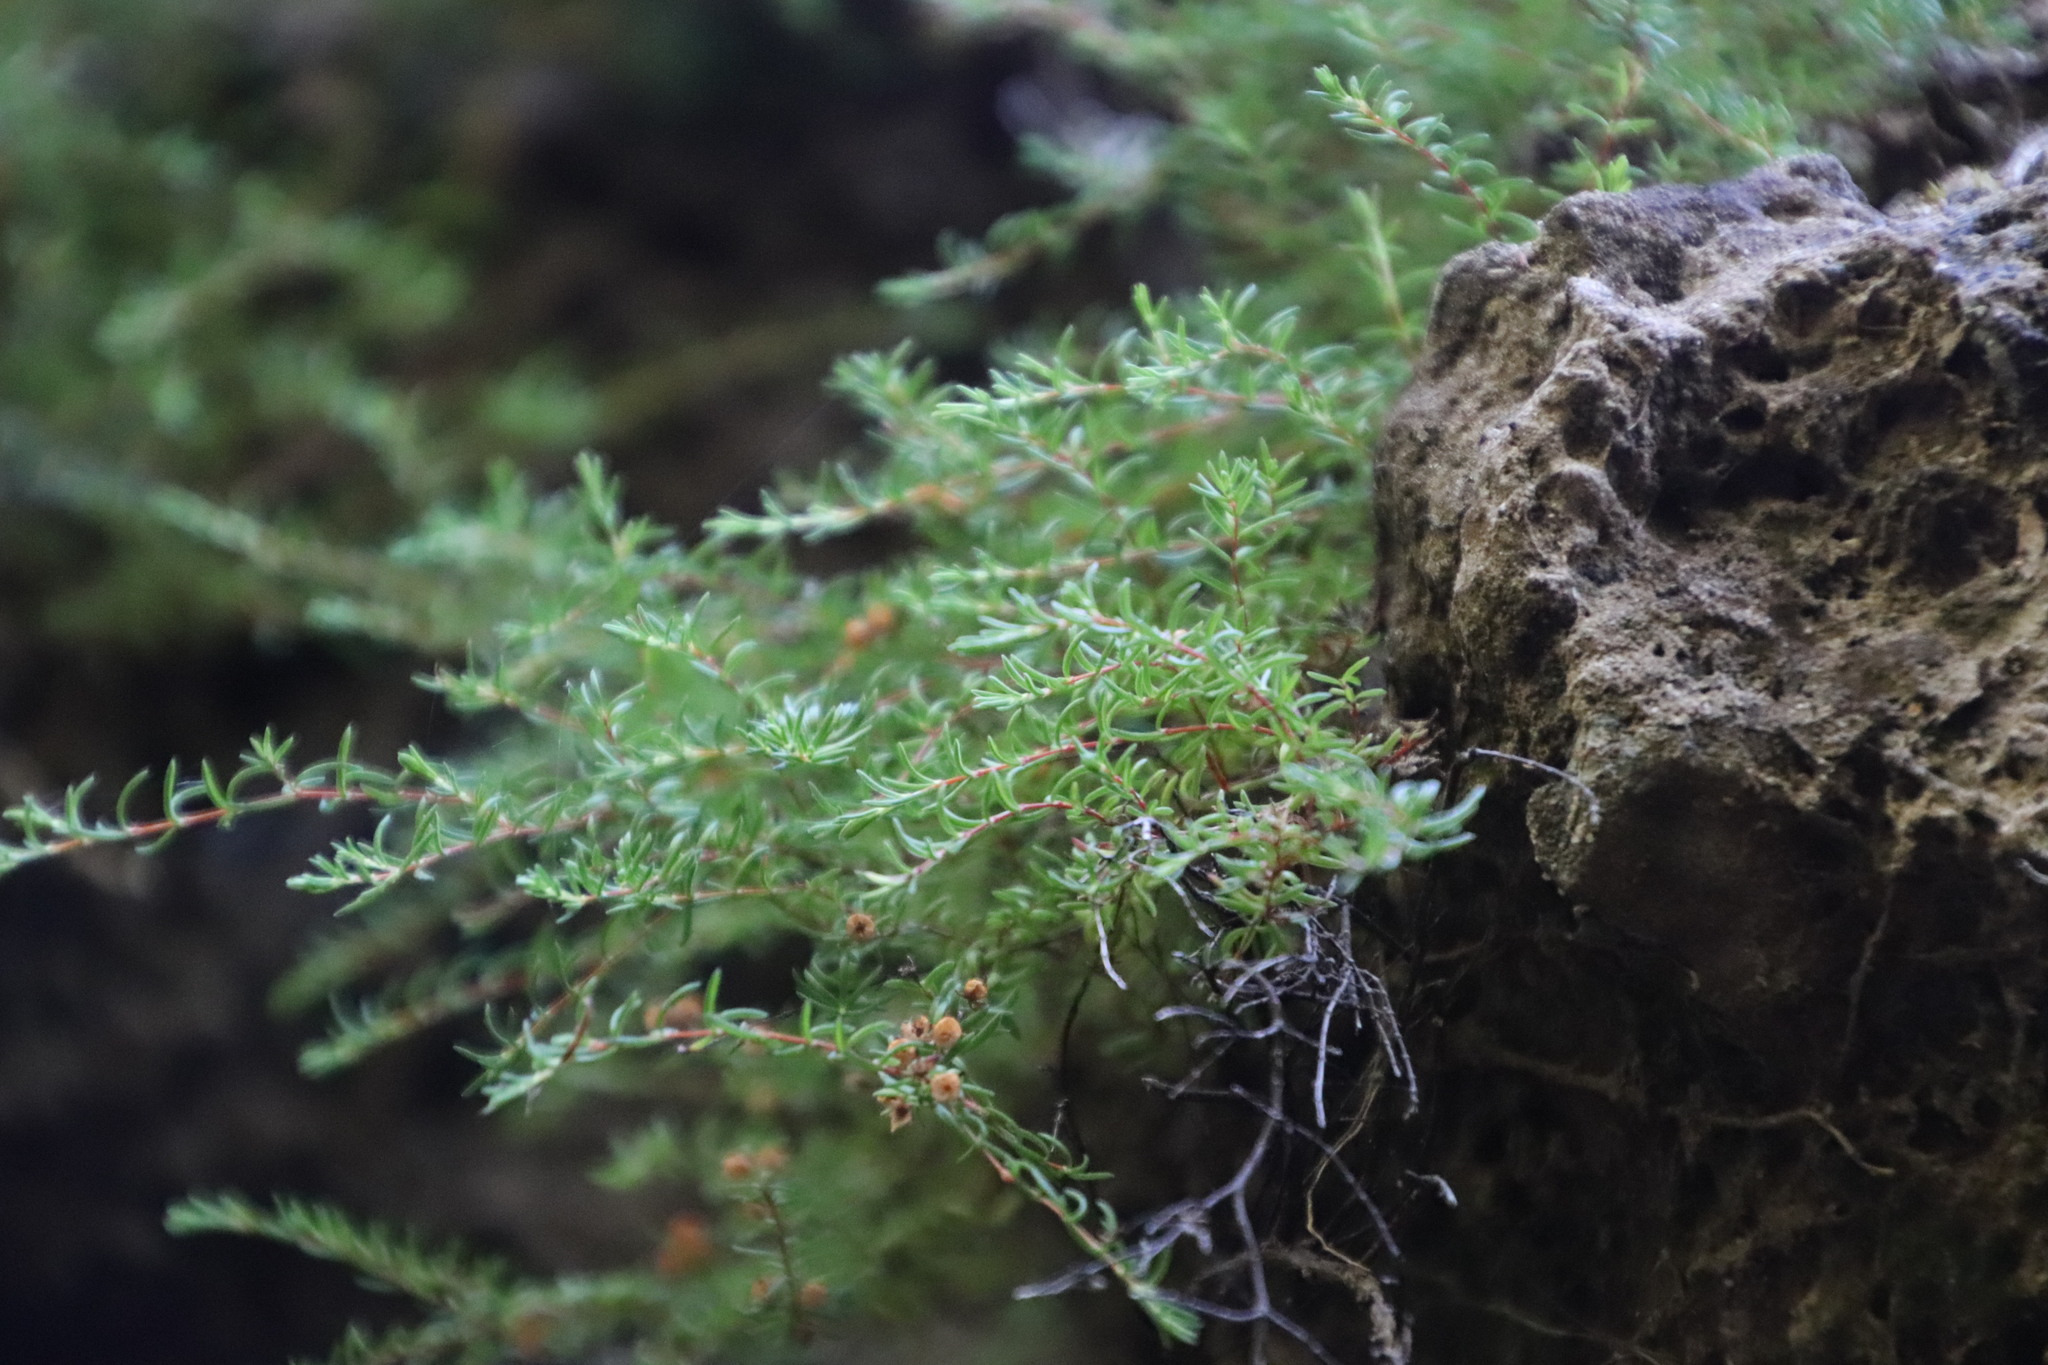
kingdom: Plantae
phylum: Tracheophyta
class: Magnoliopsida
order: Ericales
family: Ericaceae
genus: Erica
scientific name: Erica tenuis
